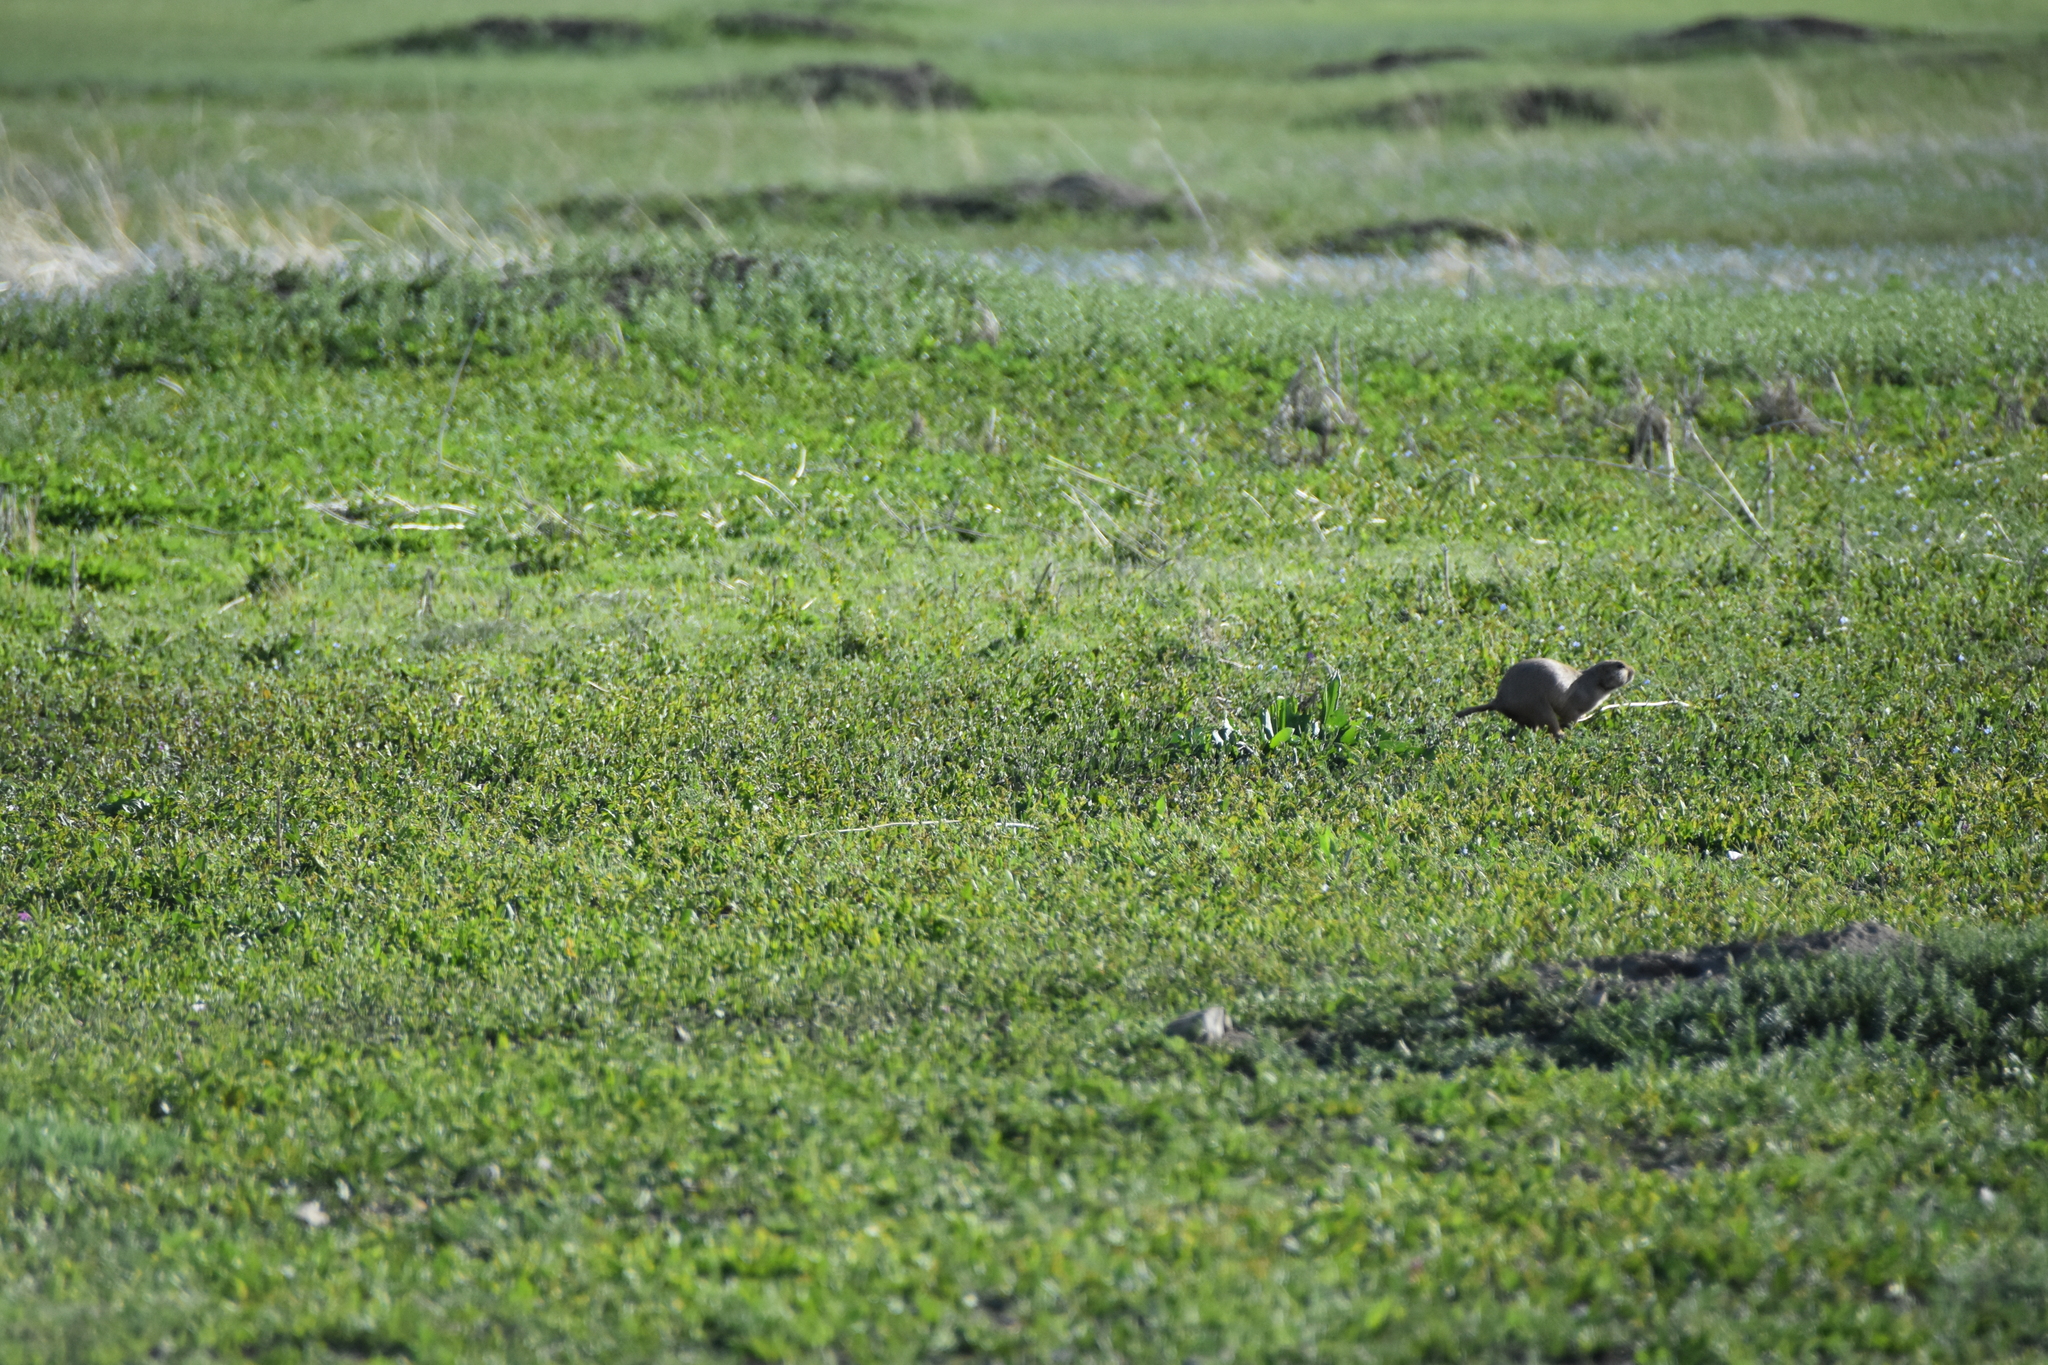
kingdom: Animalia
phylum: Chordata
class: Mammalia
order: Rodentia
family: Sciuridae
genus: Cynomys
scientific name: Cynomys ludovicianus
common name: Black-tailed prairie dog
